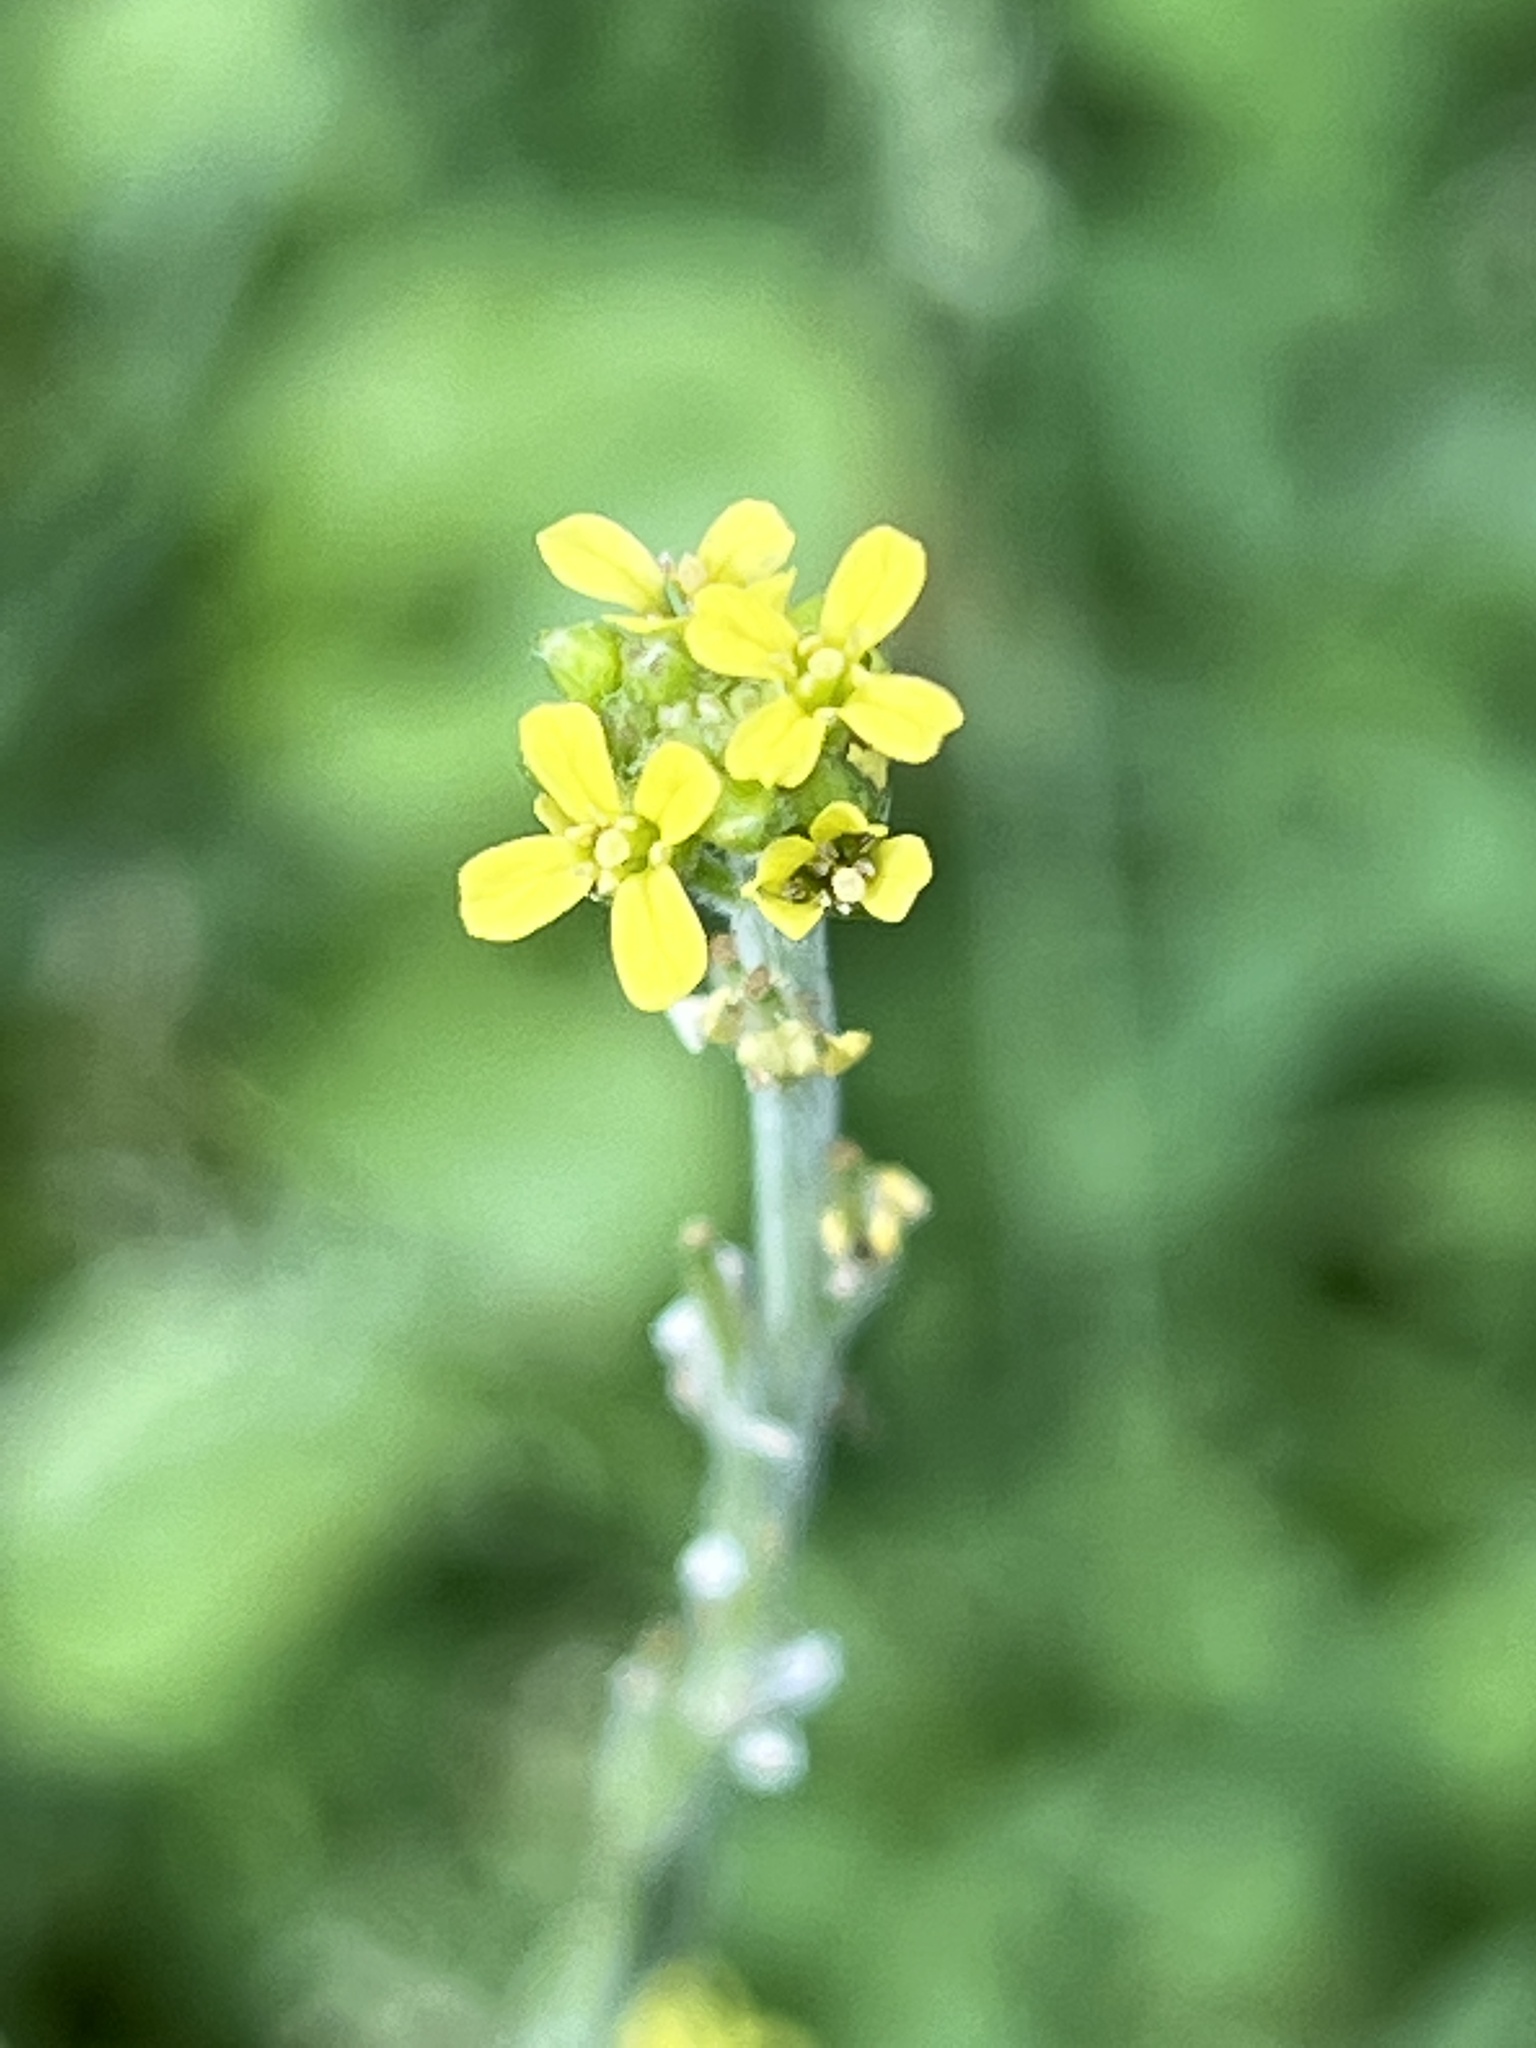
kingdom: Plantae
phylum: Tracheophyta
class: Magnoliopsida
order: Brassicales
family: Brassicaceae
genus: Sisymbrium
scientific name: Sisymbrium officinale
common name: Hedge mustard
